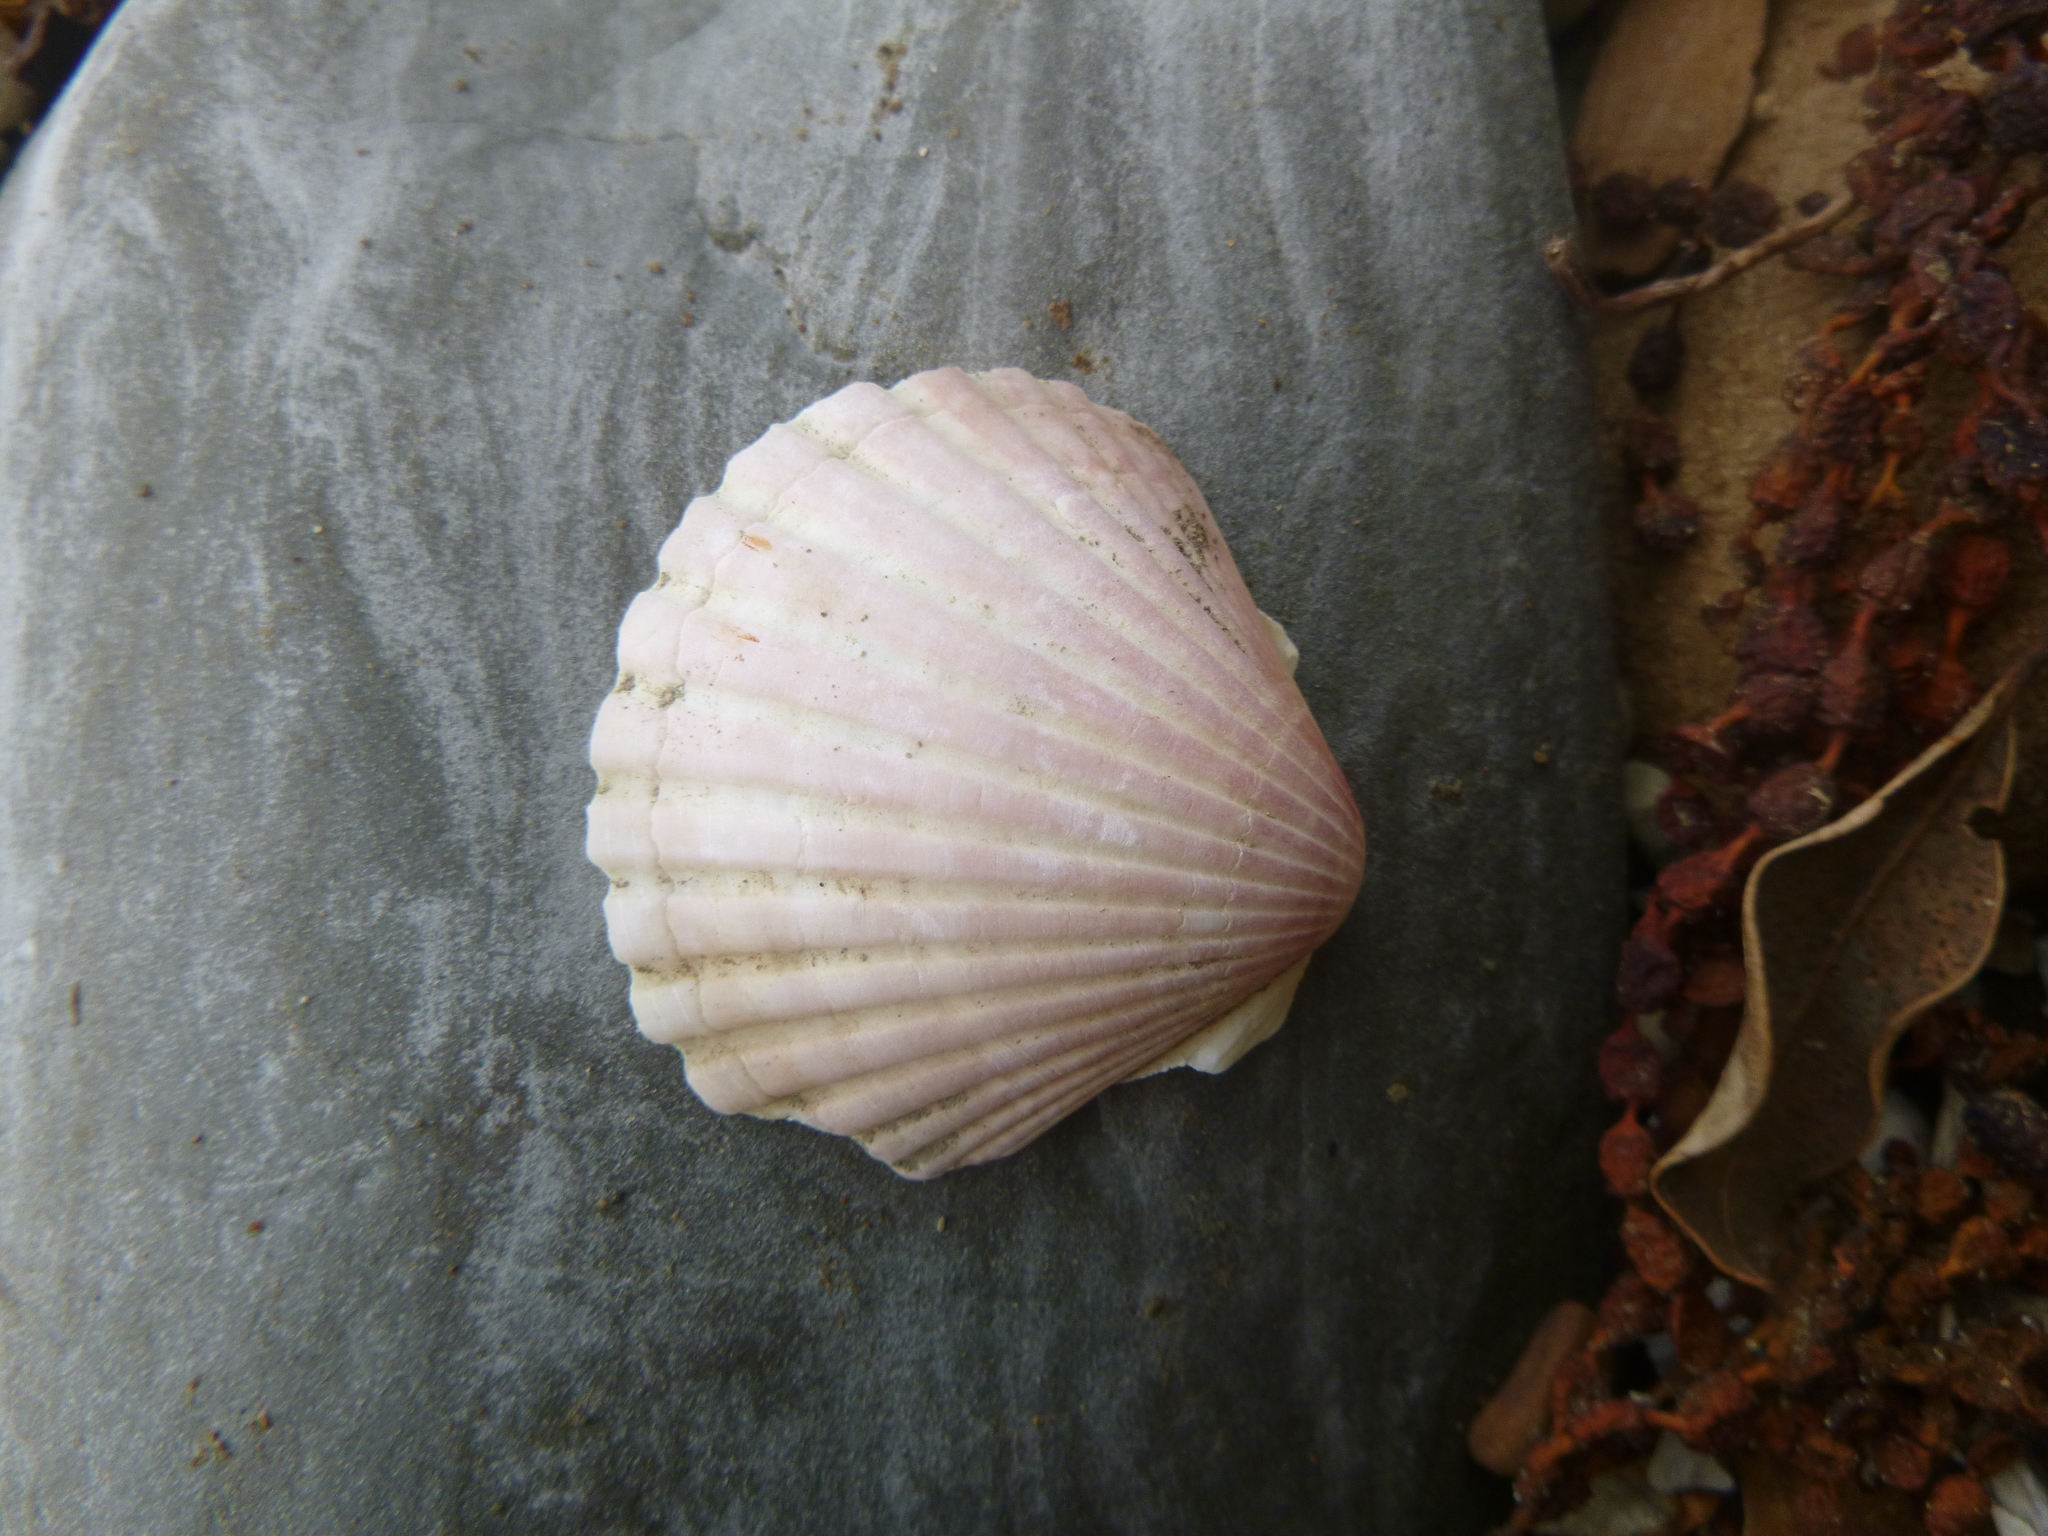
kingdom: Animalia
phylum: Mollusca
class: Bivalvia
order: Pectinida
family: Pectinidae
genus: Pecten
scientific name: Pecten novaezelandiae
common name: New zealand scallop
